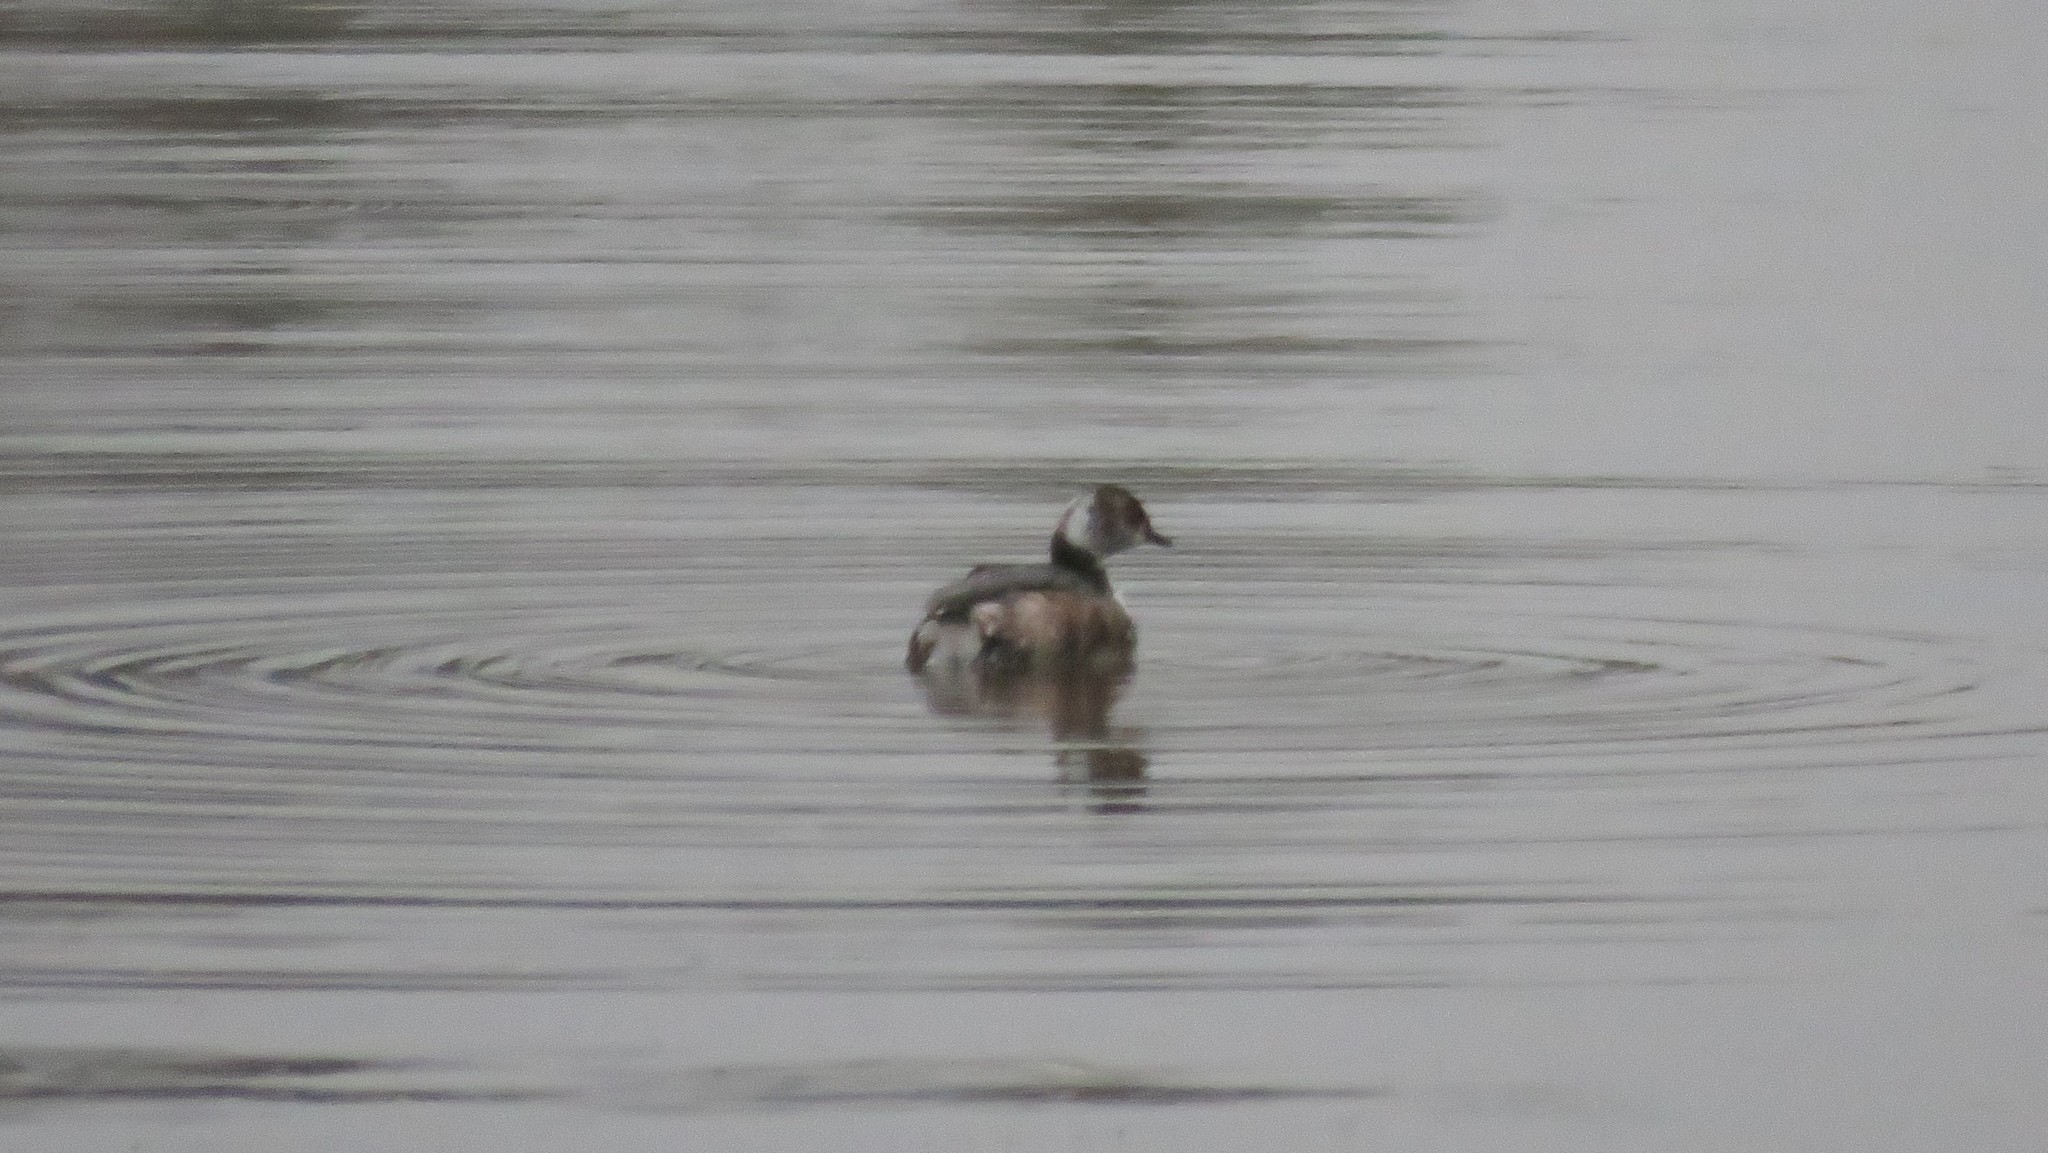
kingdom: Animalia
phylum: Chordata
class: Aves
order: Podicipediformes
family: Podicipedidae
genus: Podiceps
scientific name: Podiceps auritus
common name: Horned grebe
